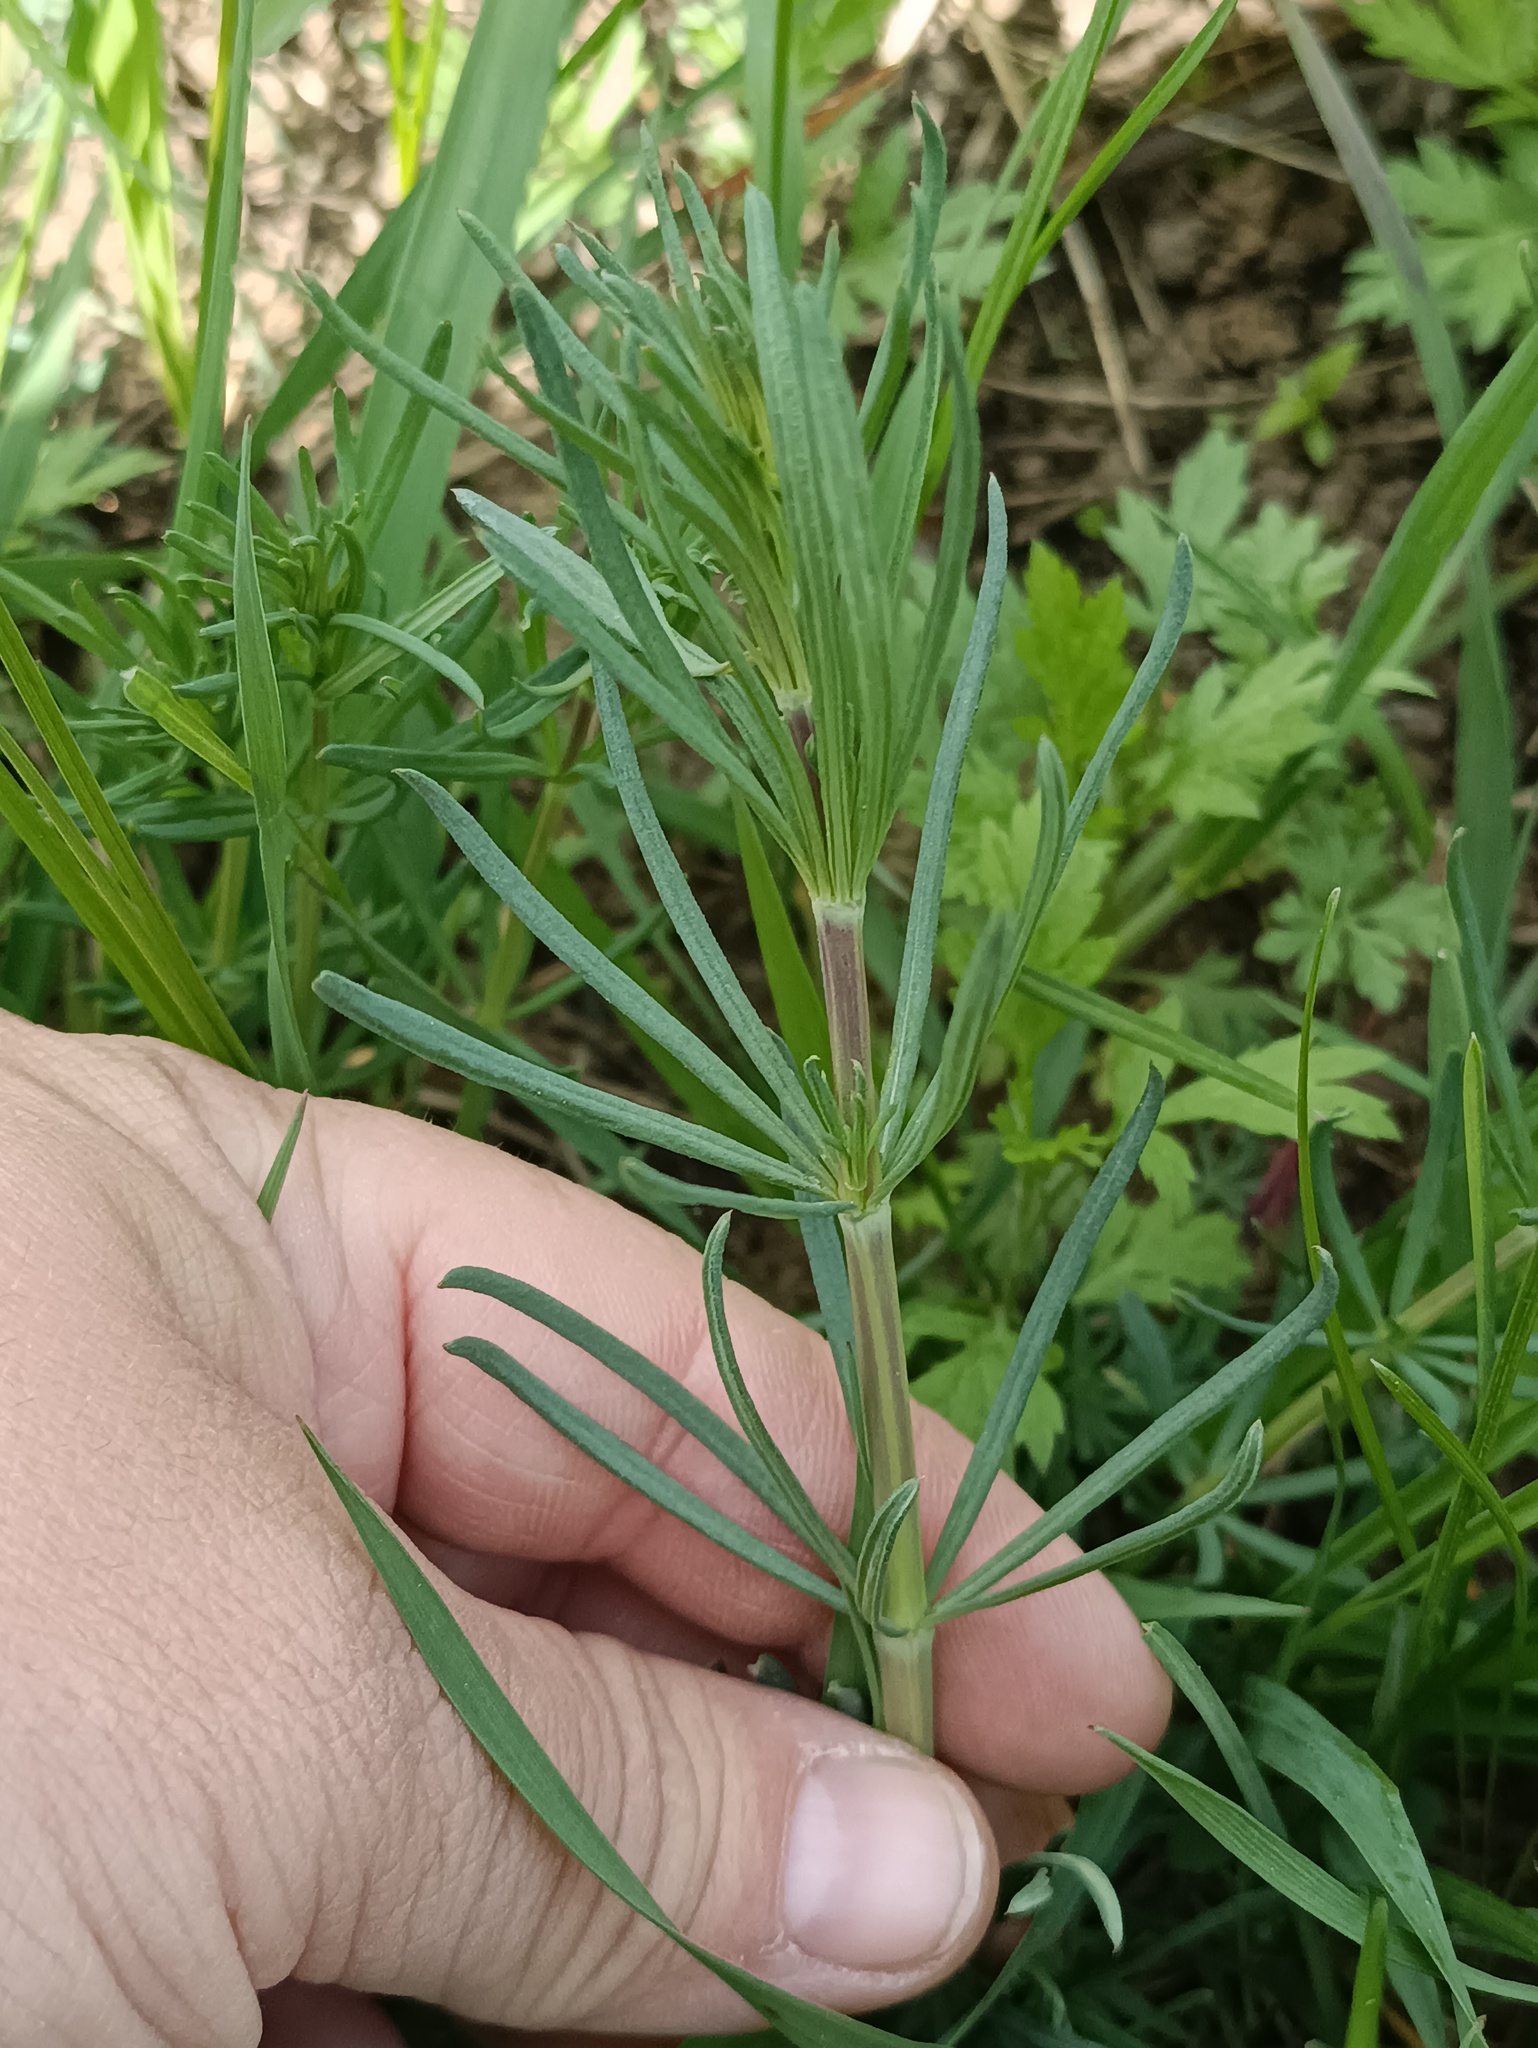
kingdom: Plantae
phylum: Tracheophyta
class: Magnoliopsida
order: Gentianales
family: Rubiaceae
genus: Galium
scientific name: Galium verum
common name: Lady's bedstraw
